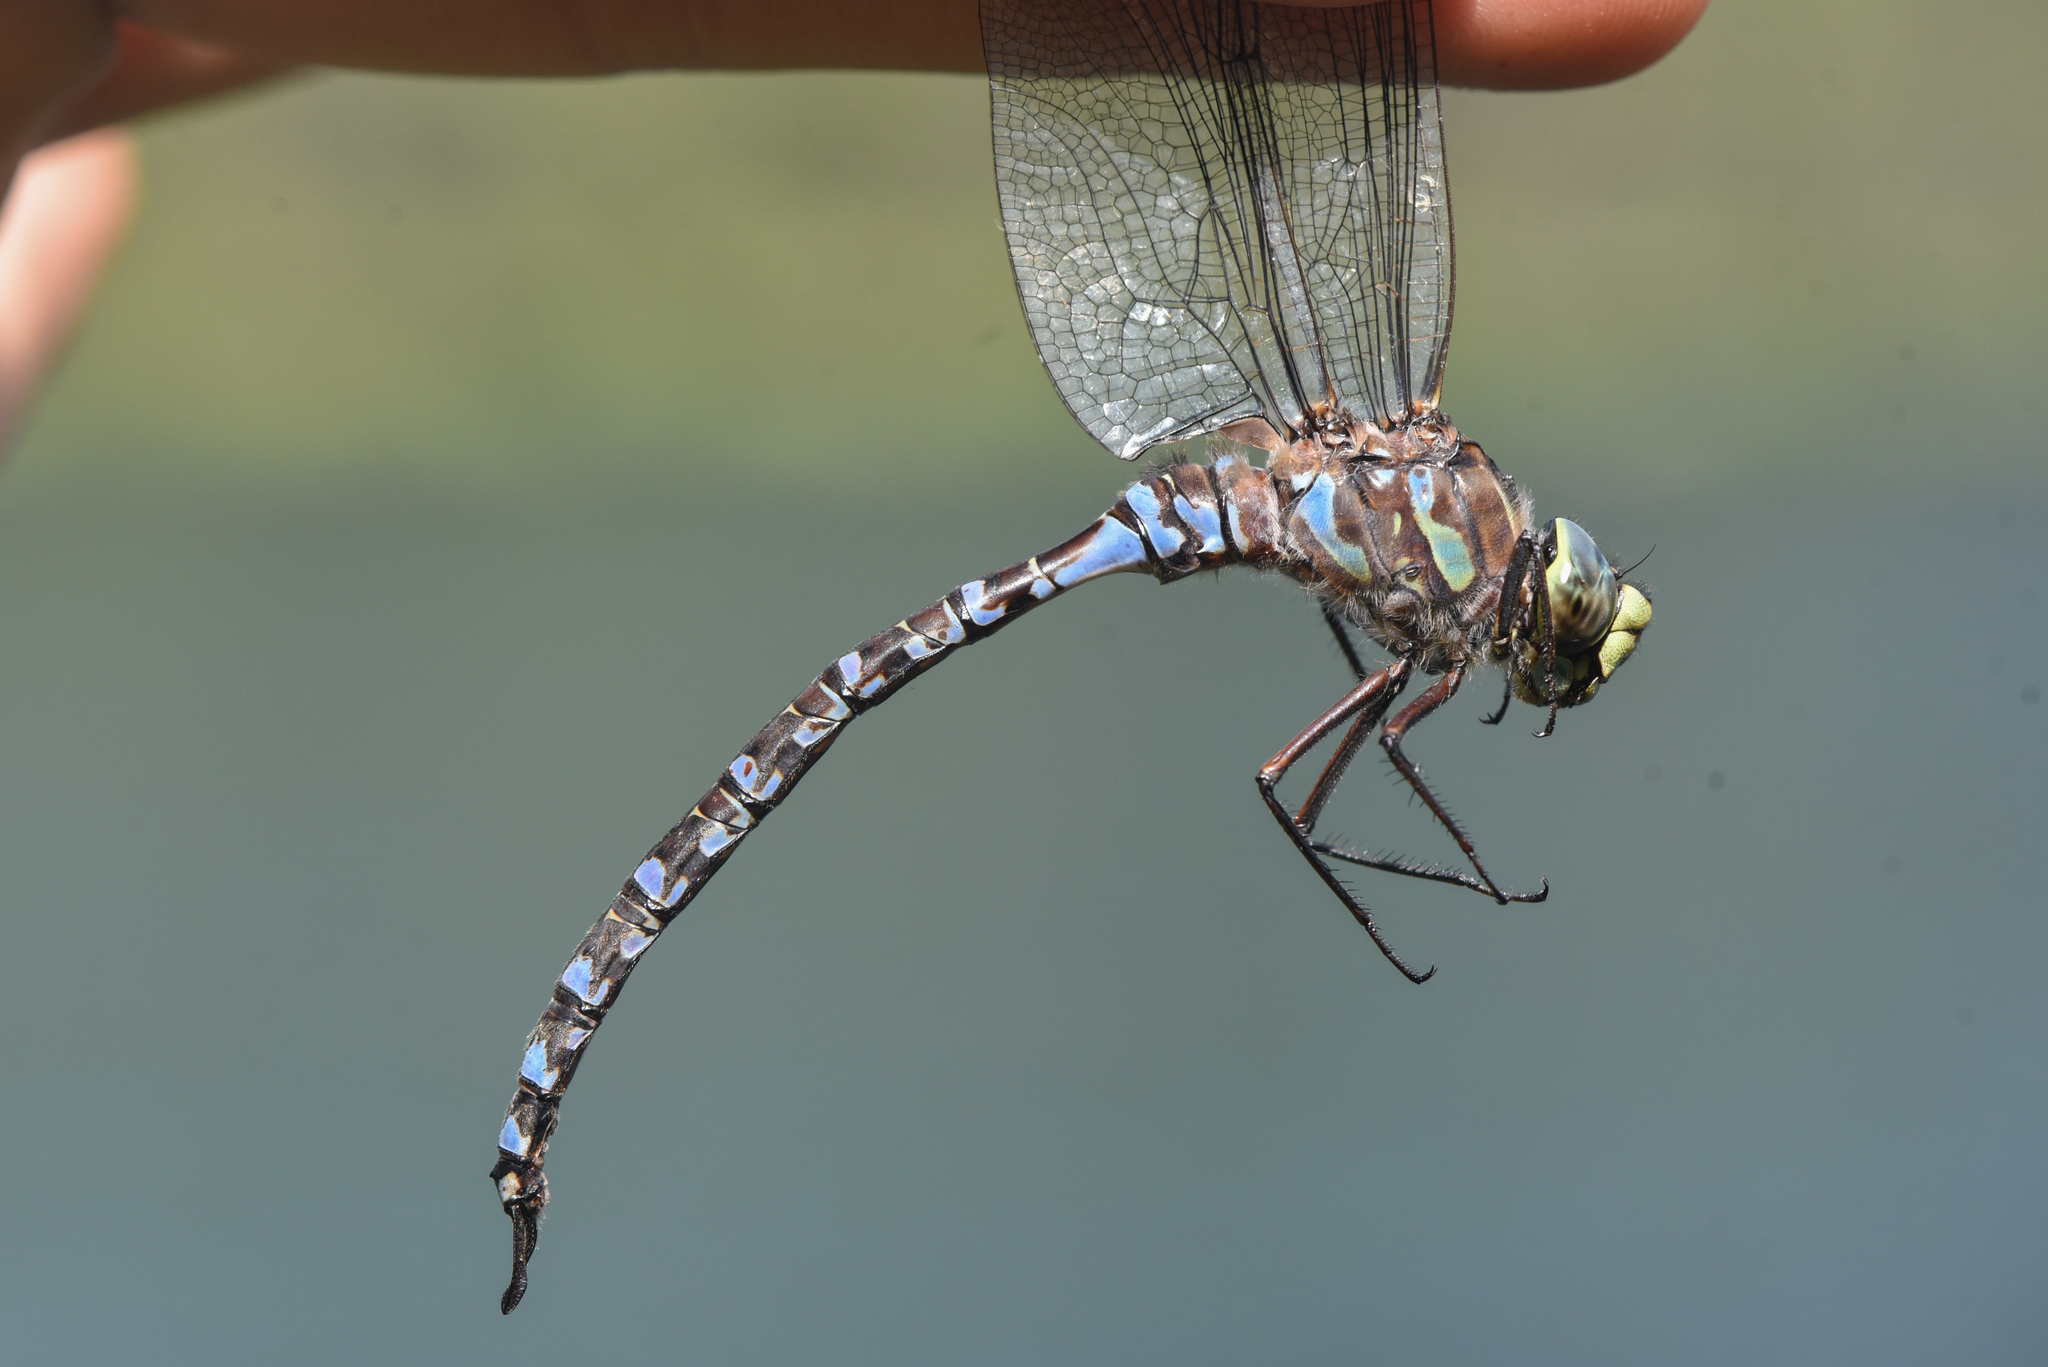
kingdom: Animalia
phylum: Arthropoda
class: Insecta
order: Odonata
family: Aeshnidae
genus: Aeshna
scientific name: Aeshna eremita
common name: Lake darner
